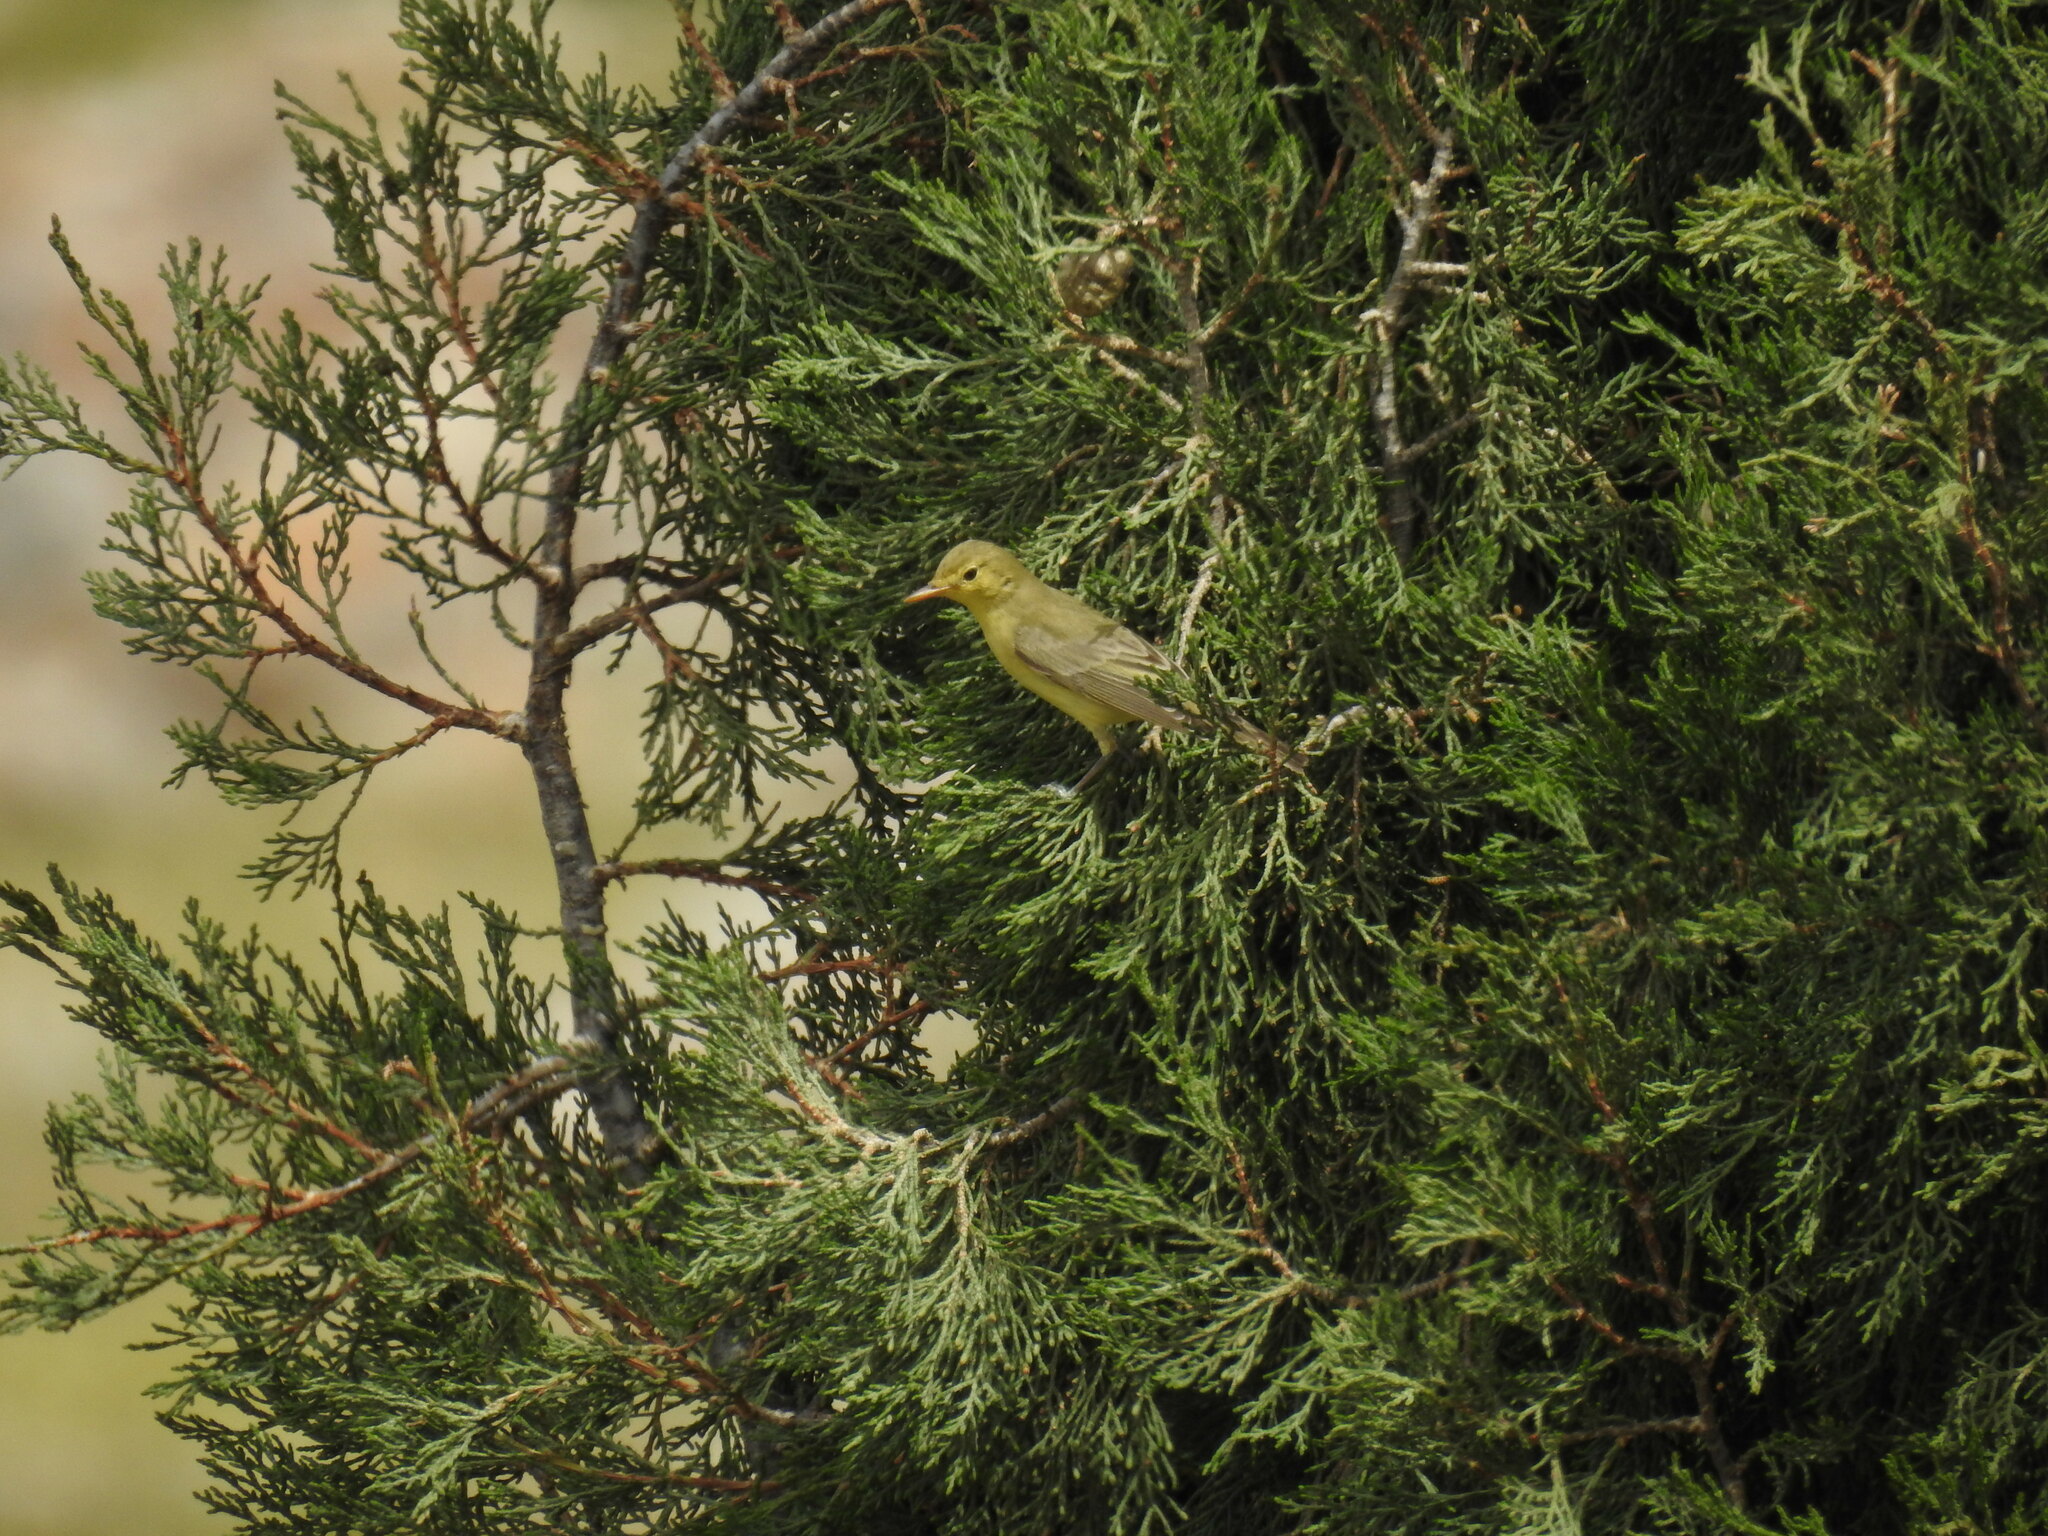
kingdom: Animalia
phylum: Chordata
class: Aves
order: Passeriformes
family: Acrocephalidae
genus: Hippolais
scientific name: Hippolais icterina
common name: Icterine warbler
